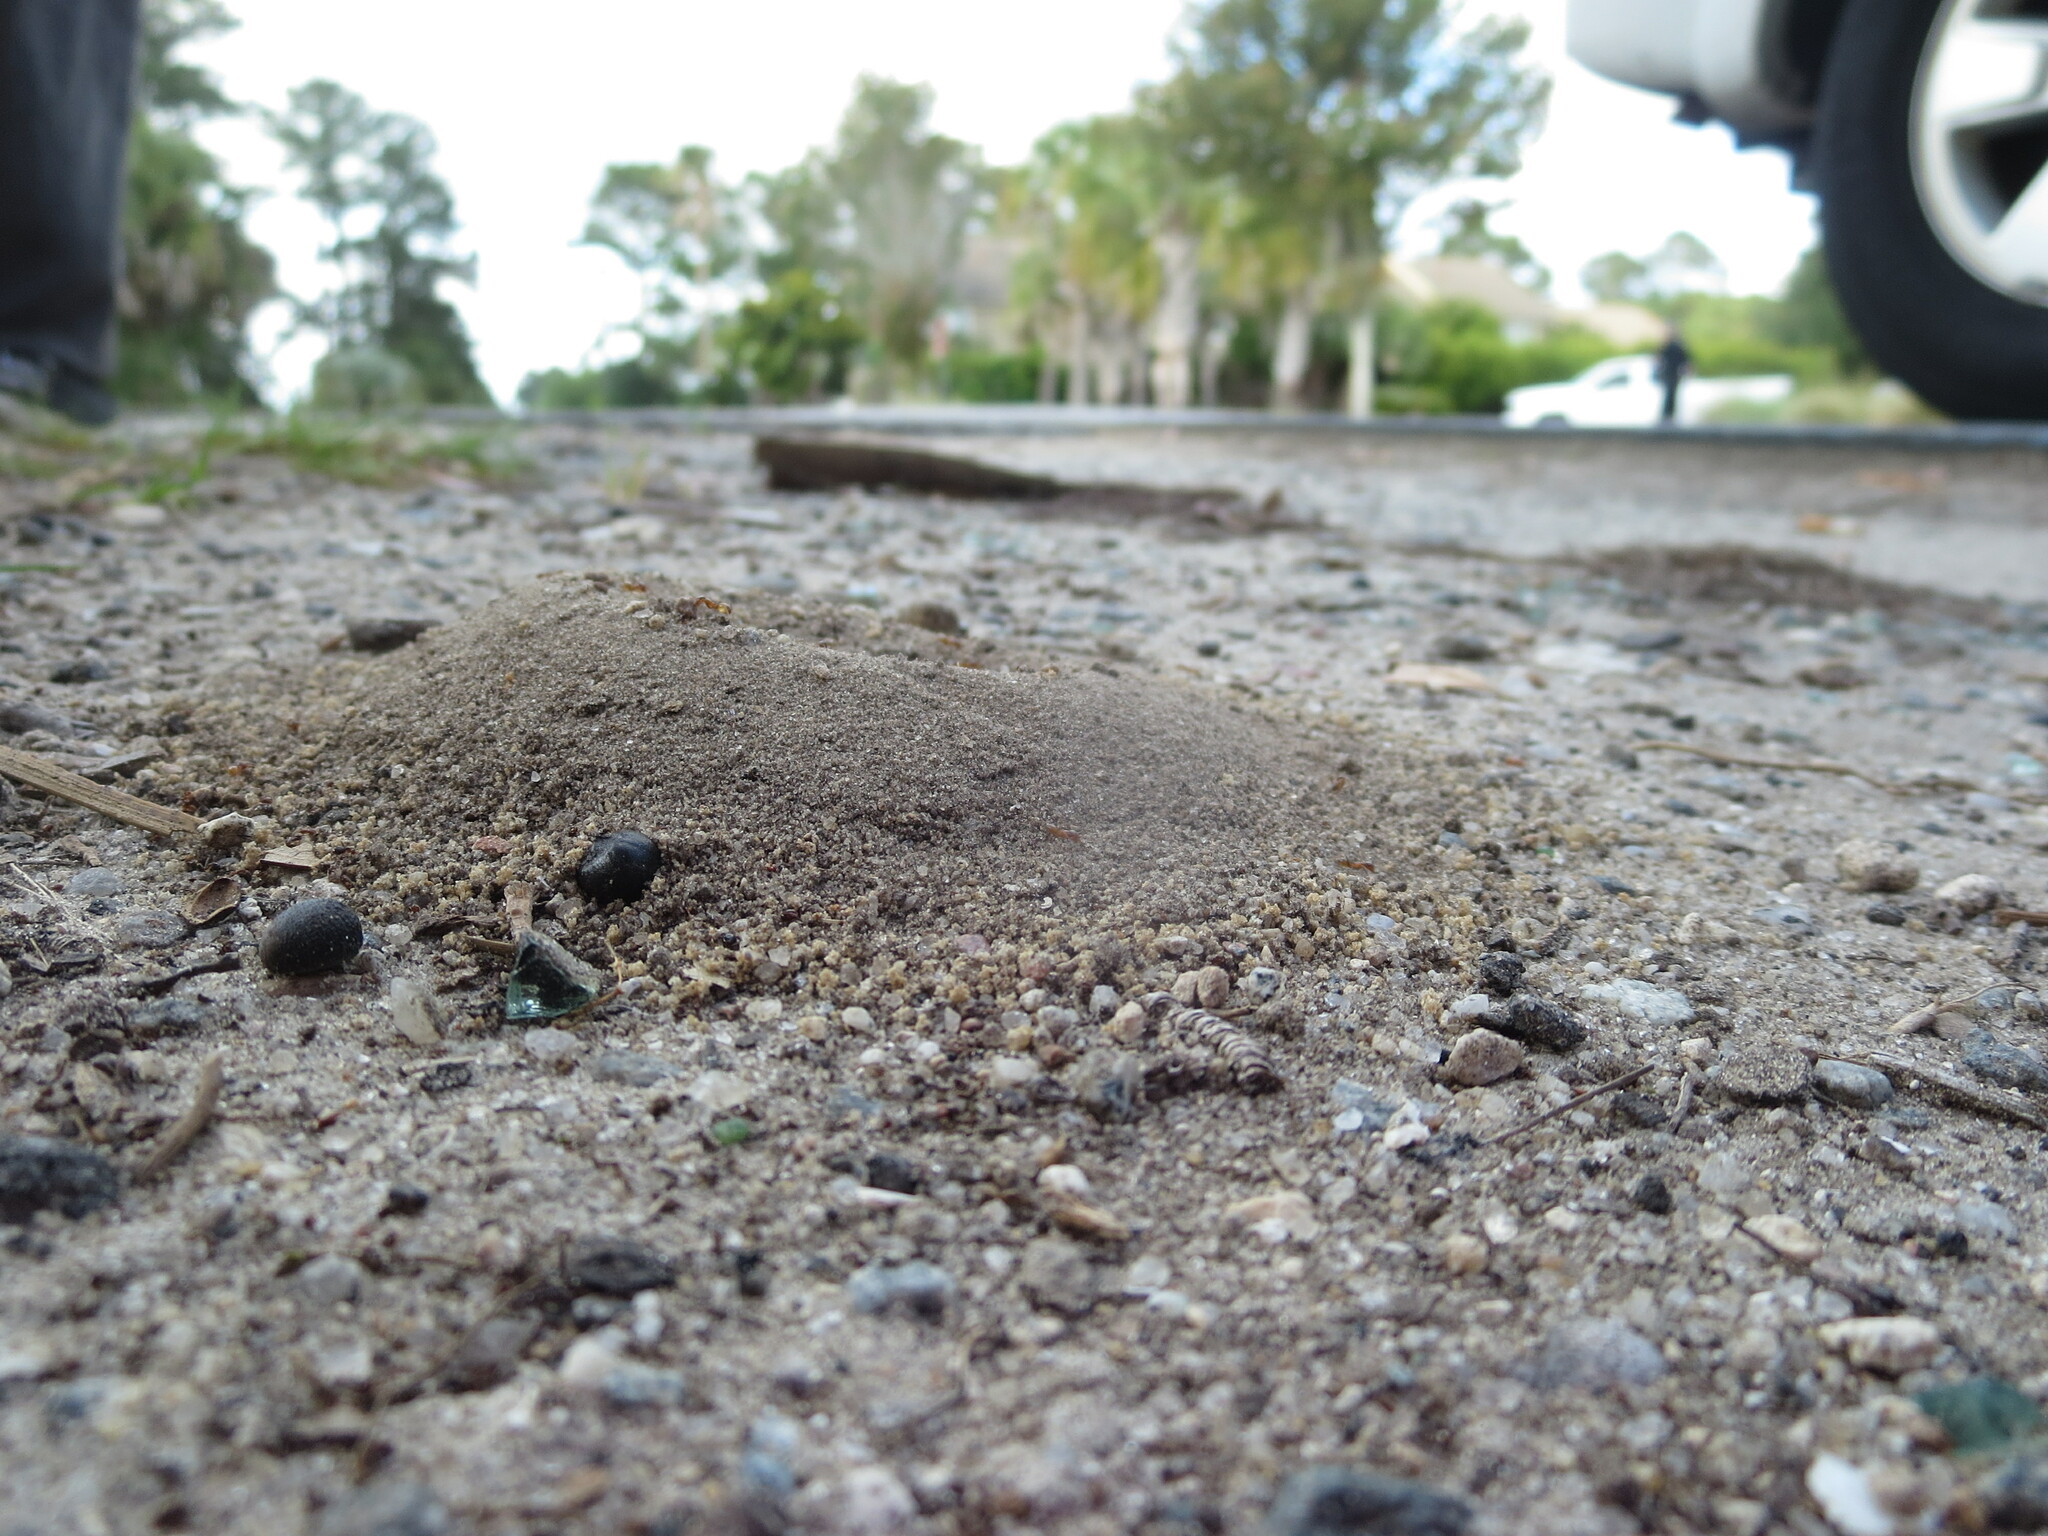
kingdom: Animalia
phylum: Arthropoda
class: Insecta
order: Hymenoptera
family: Formicidae
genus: Dorymyrmex
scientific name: Dorymyrmex bureni
